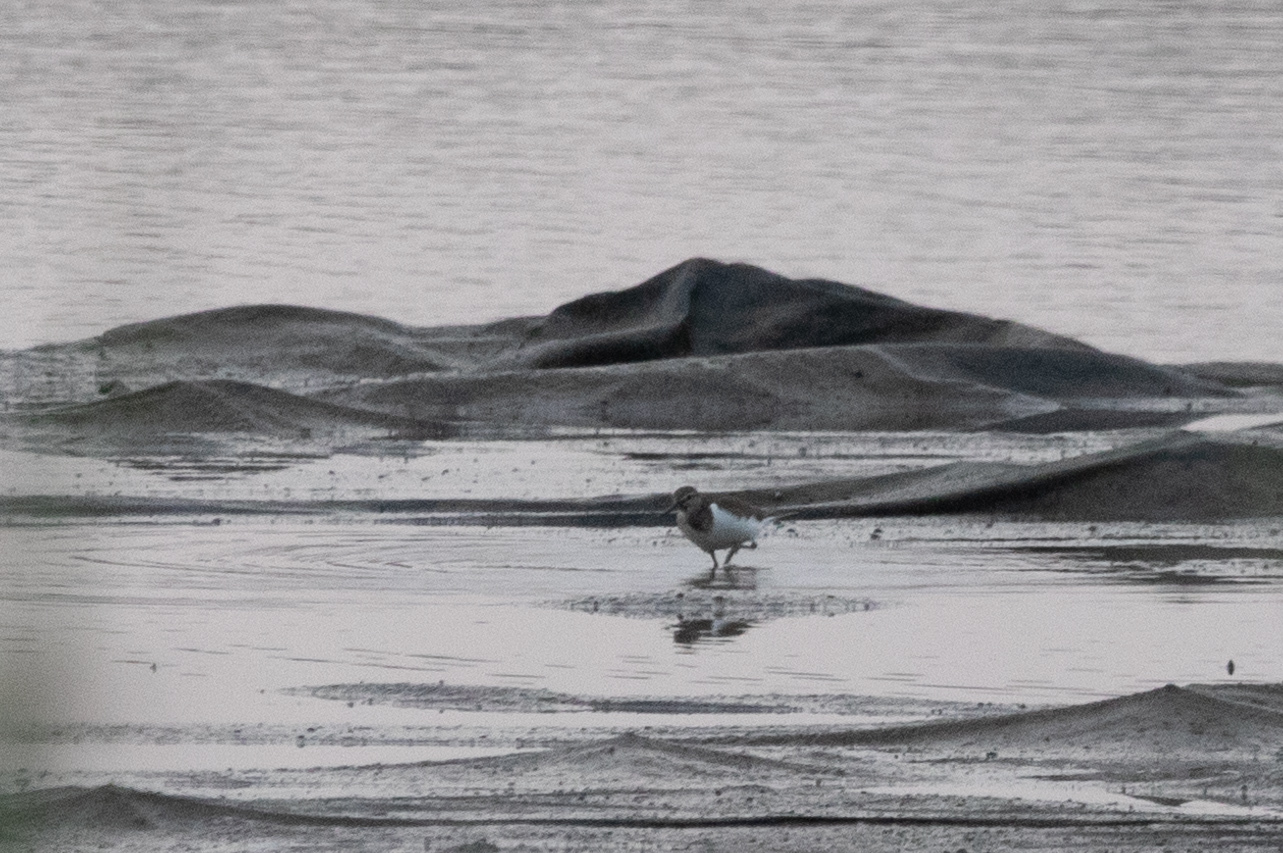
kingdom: Animalia
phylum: Chordata
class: Aves
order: Charadriiformes
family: Scolopacidae
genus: Actitis
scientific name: Actitis hypoleucos
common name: Common sandpiper
